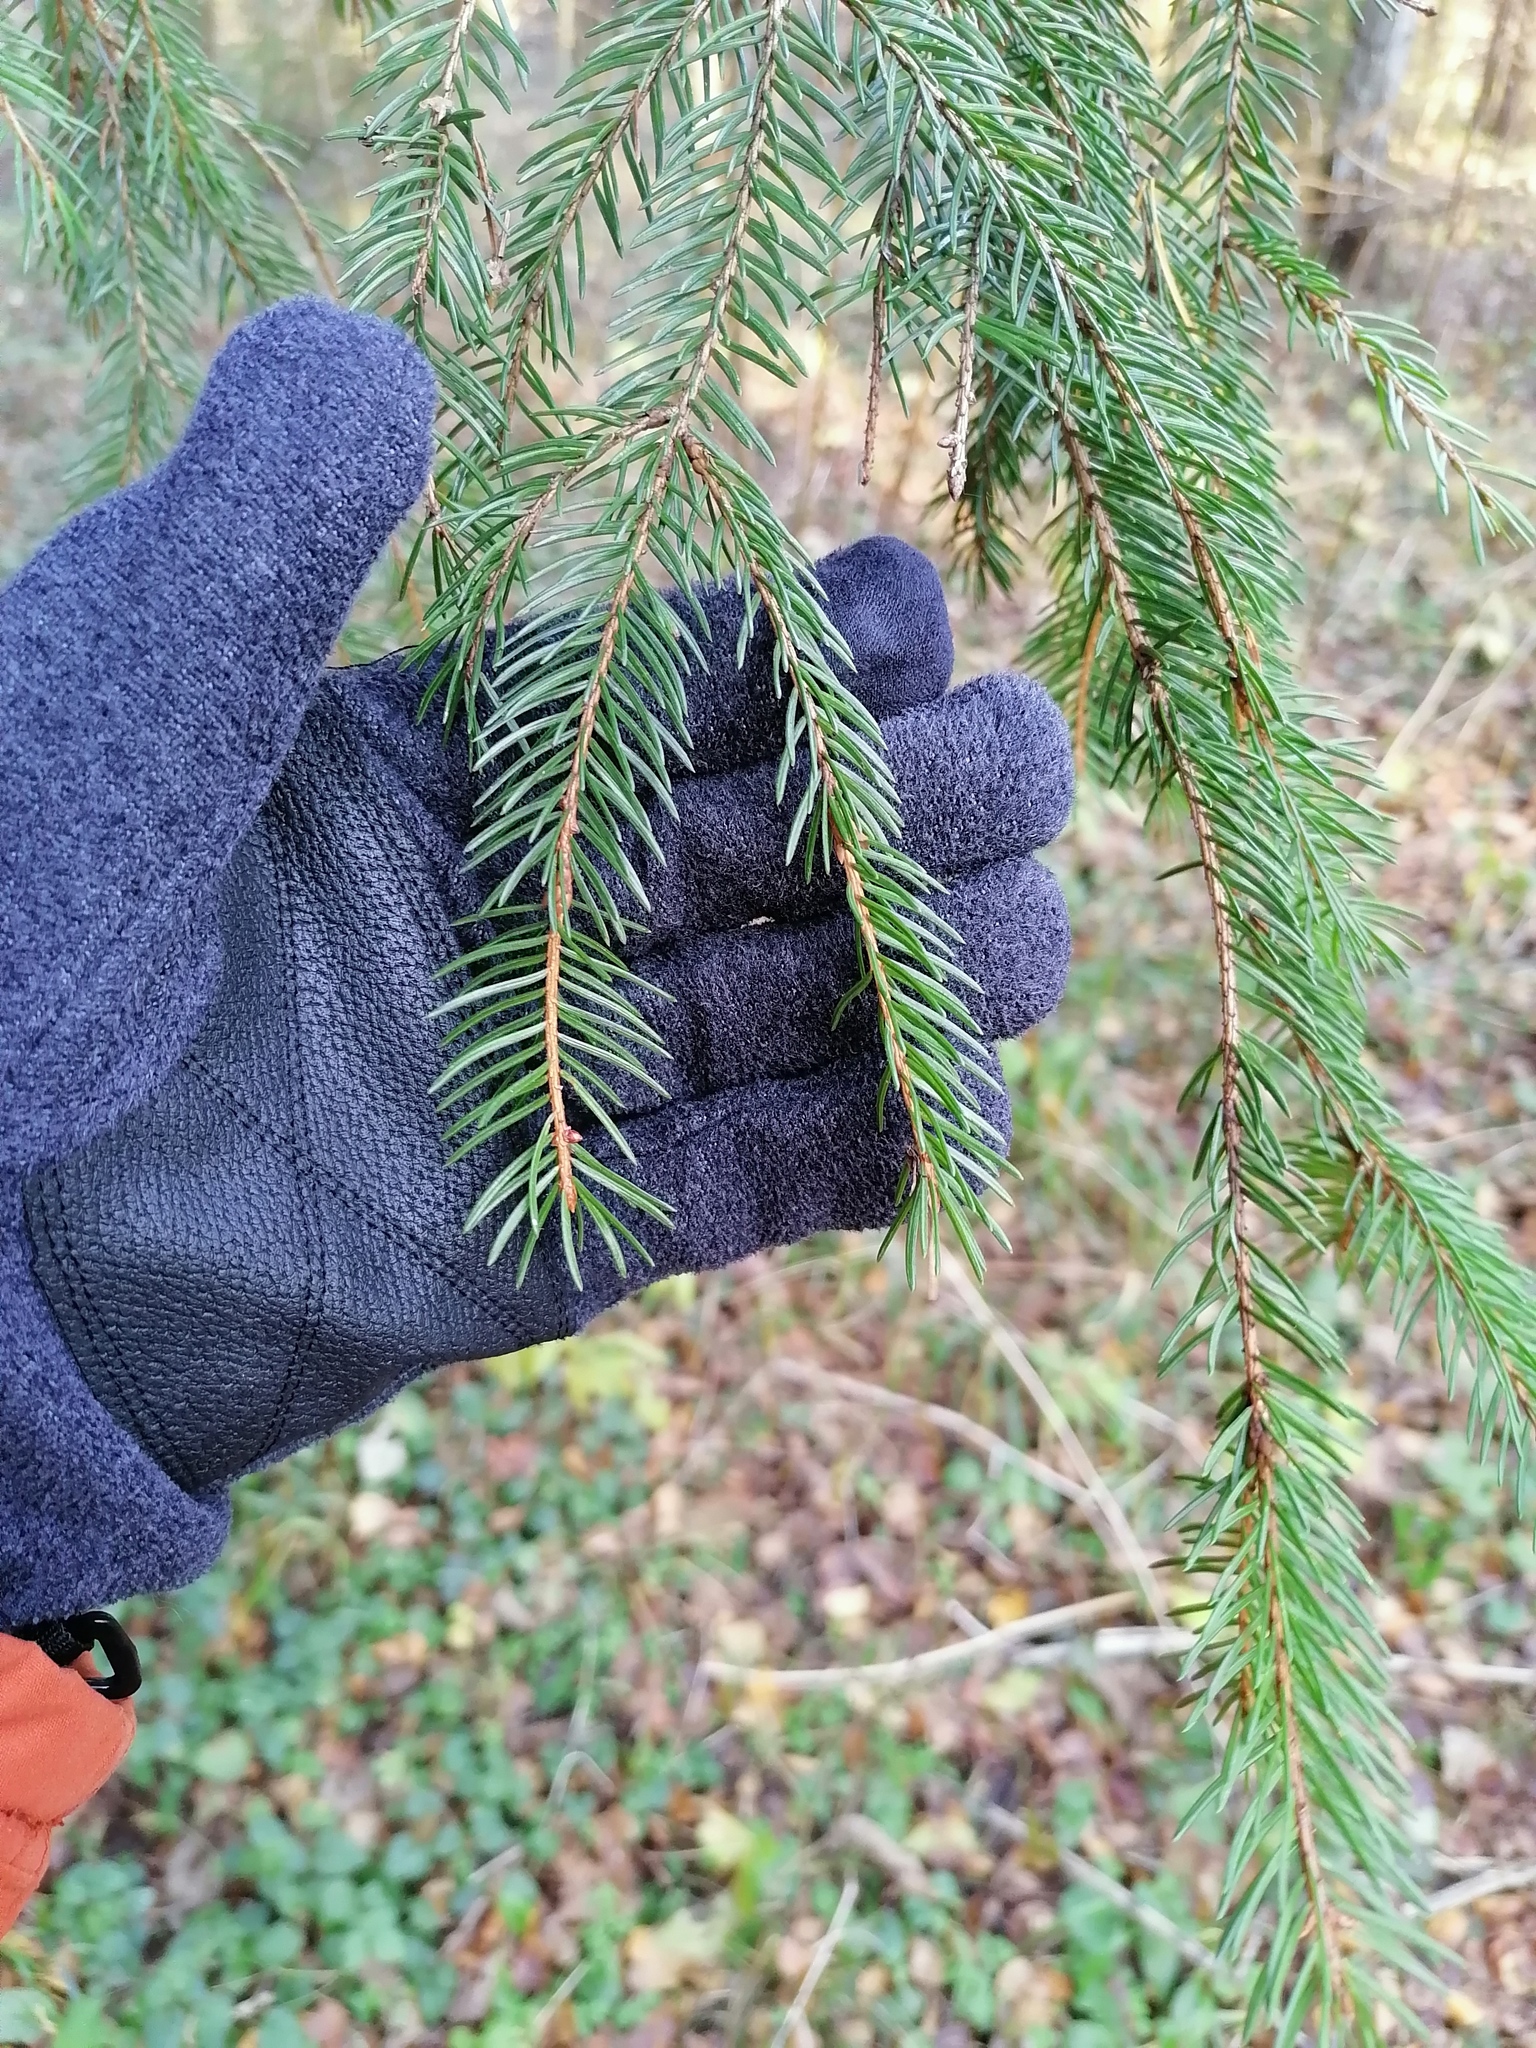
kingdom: Plantae
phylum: Tracheophyta
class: Pinopsida
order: Pinales
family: Pinaceae
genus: Picea
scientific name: Picea abies
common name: Norway spruce
